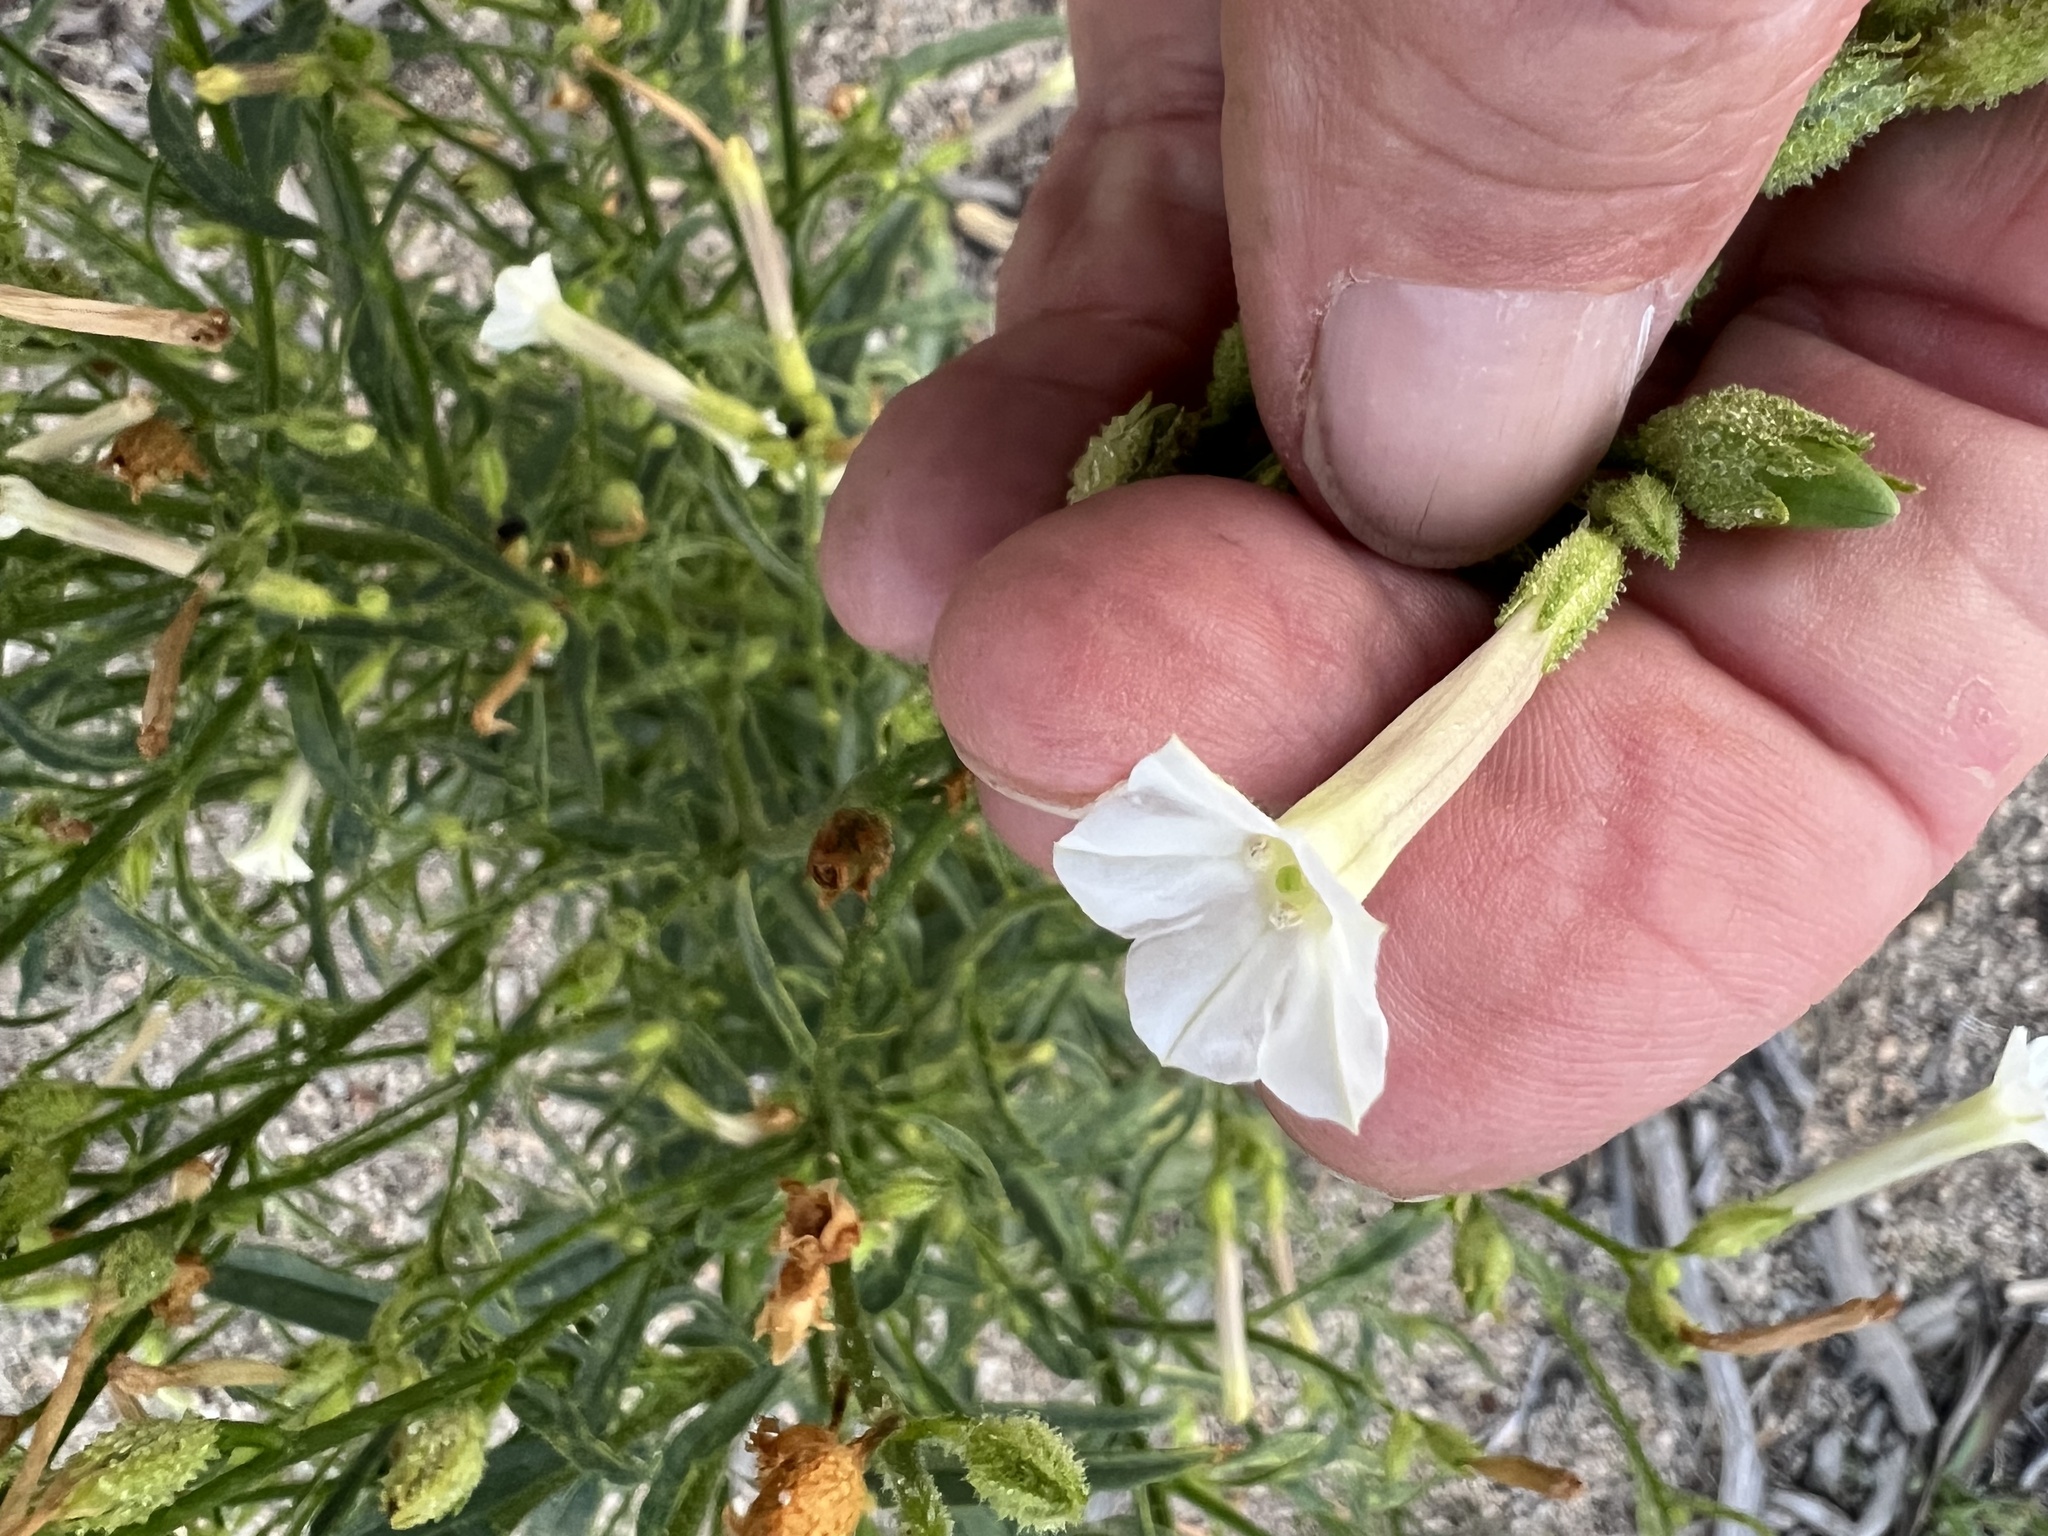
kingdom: Plantae
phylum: Tracheophyta
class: Magnoliopsida
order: Solanales
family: Solanaceae
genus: Nicotiana
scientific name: Nicotiana attenuata
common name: Coyote tobacco
